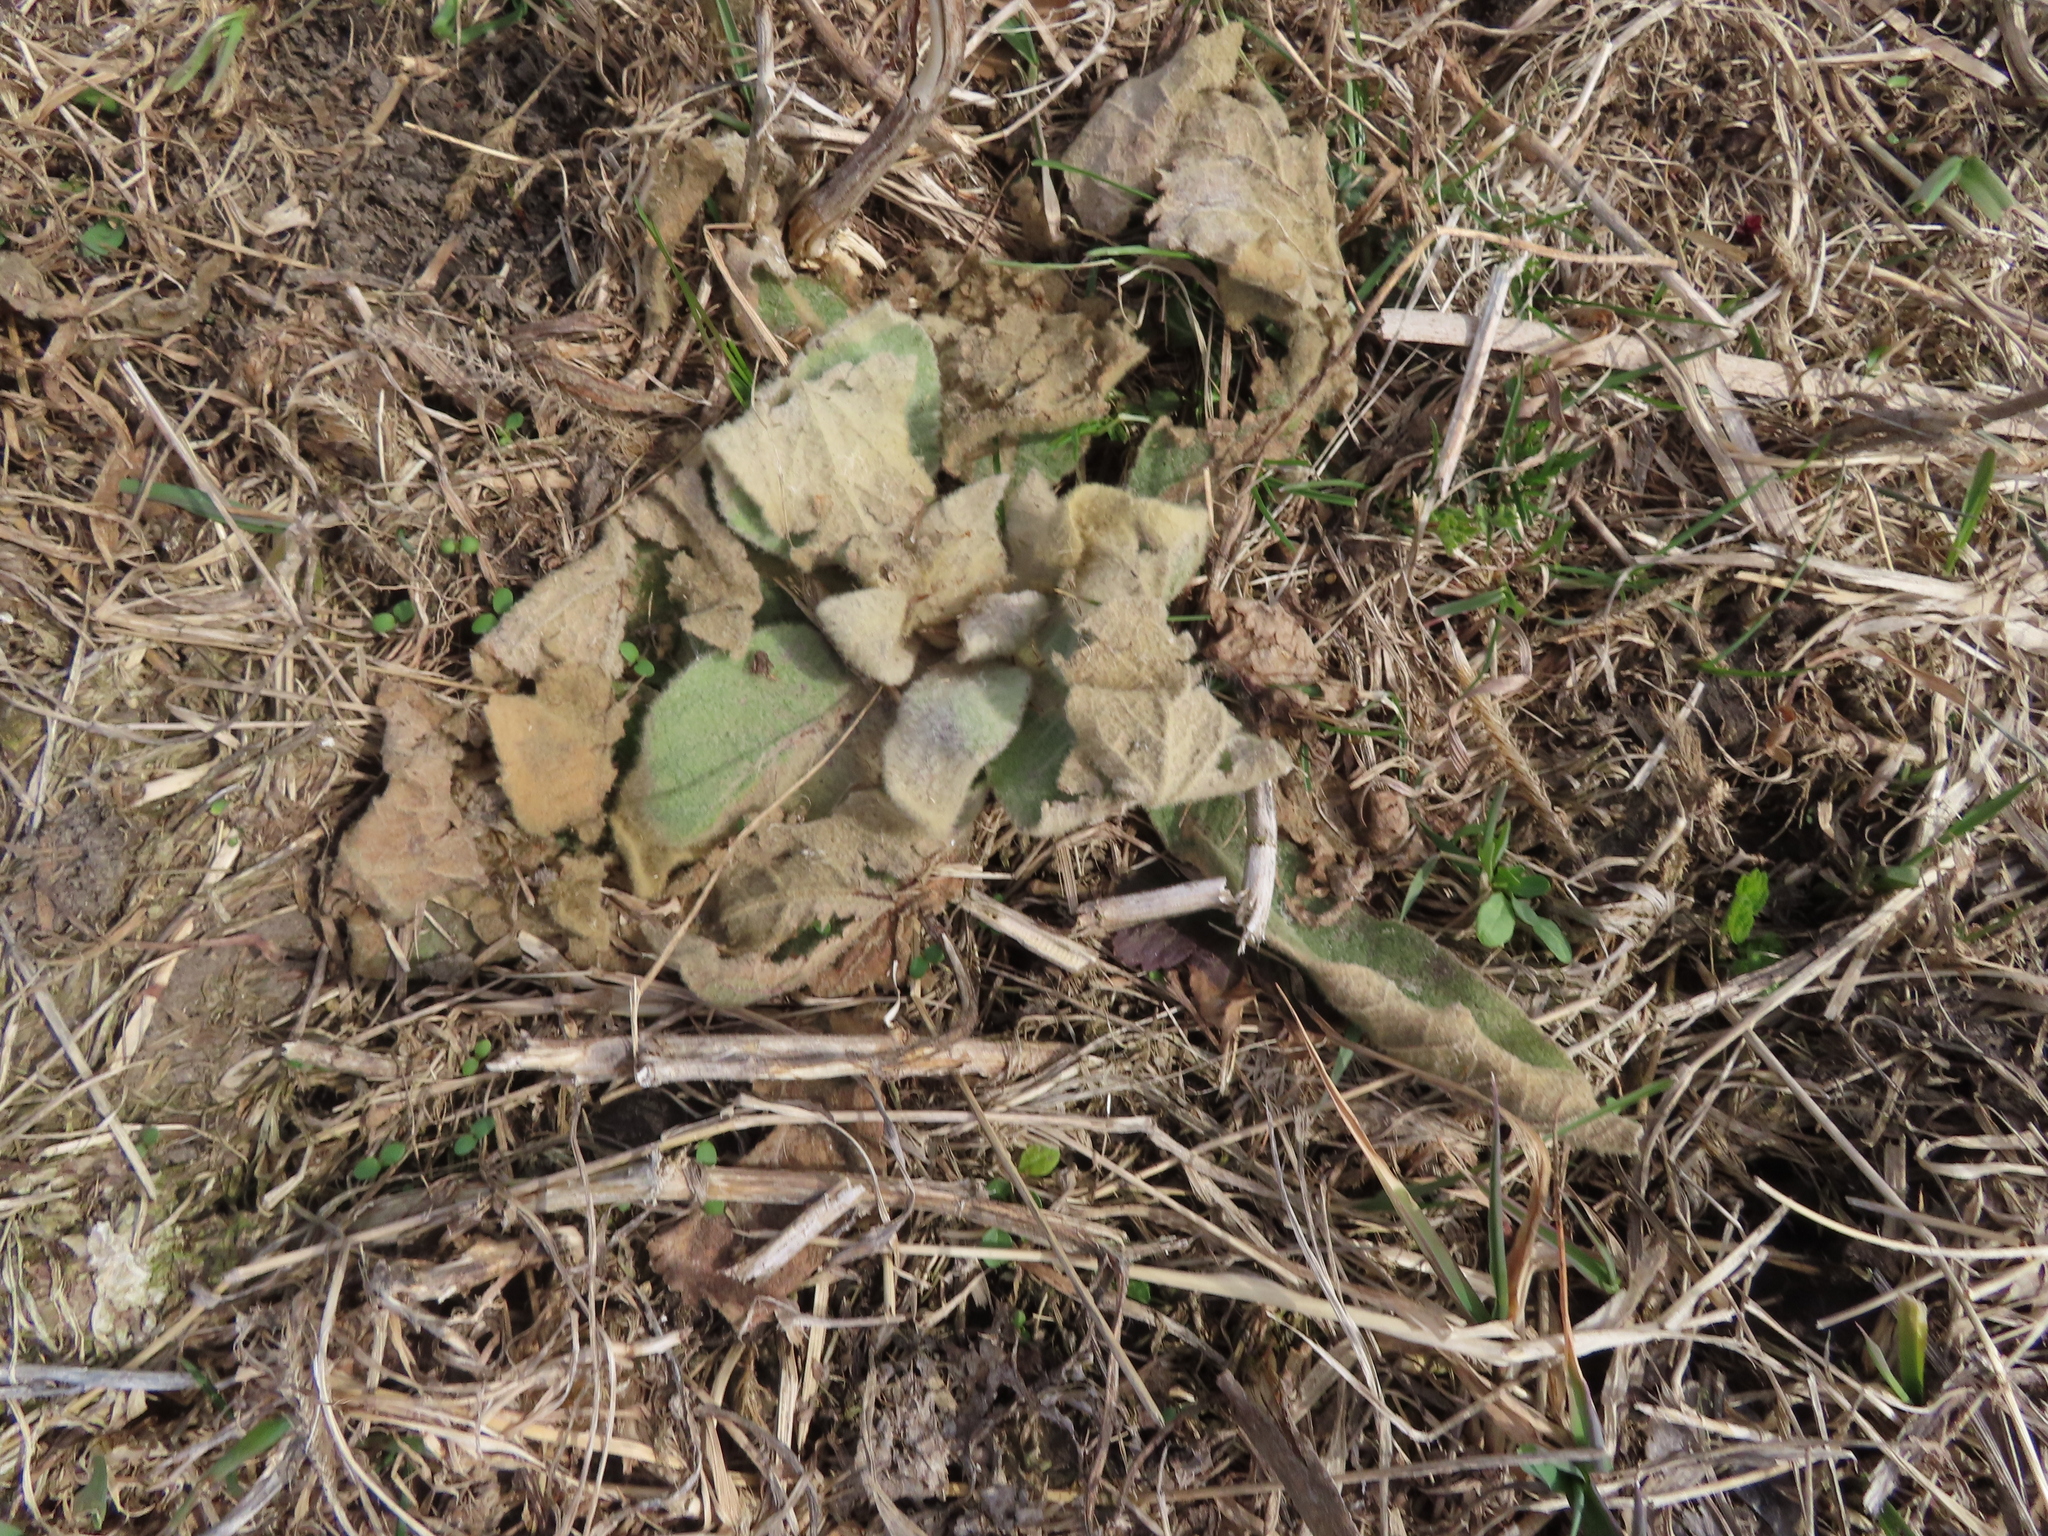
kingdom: Plantae
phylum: Tracheophyta
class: Magnoliopsida
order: Lamiales
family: Scrophulariaceae
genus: Verbascum
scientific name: Verbascum thapsus
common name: Common mullein
